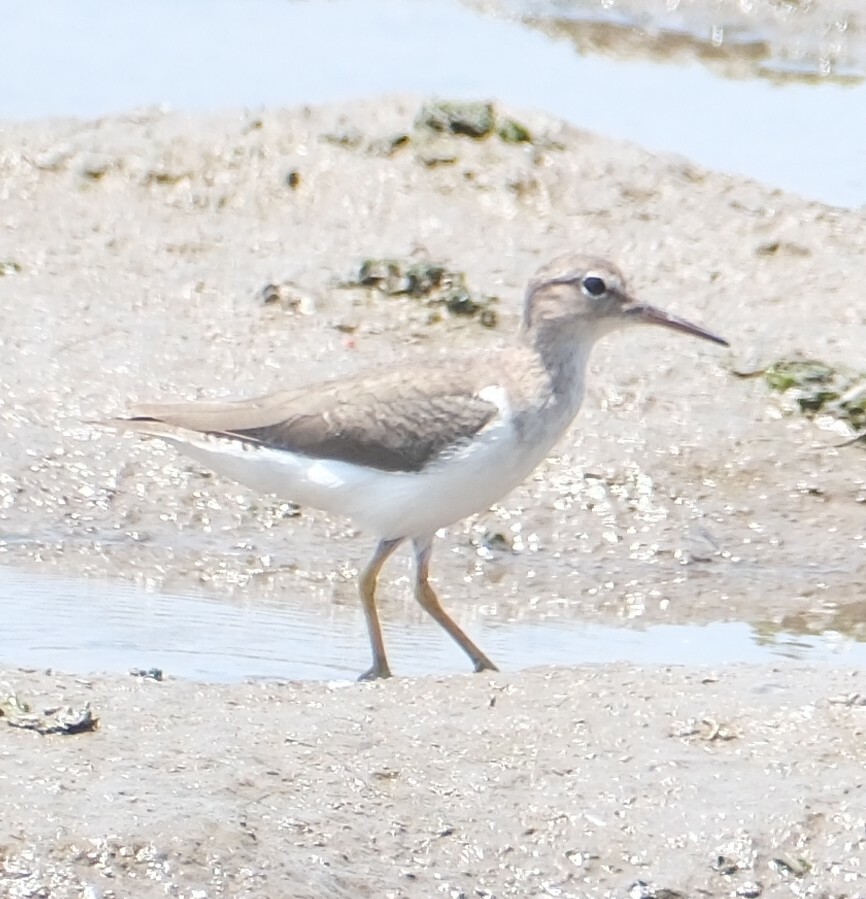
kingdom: Animalia
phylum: Chordata
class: Aves
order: Charadriiformes
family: Scolopacidae
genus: Actitis
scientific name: Actitis macularius
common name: Spotted sandpiper
